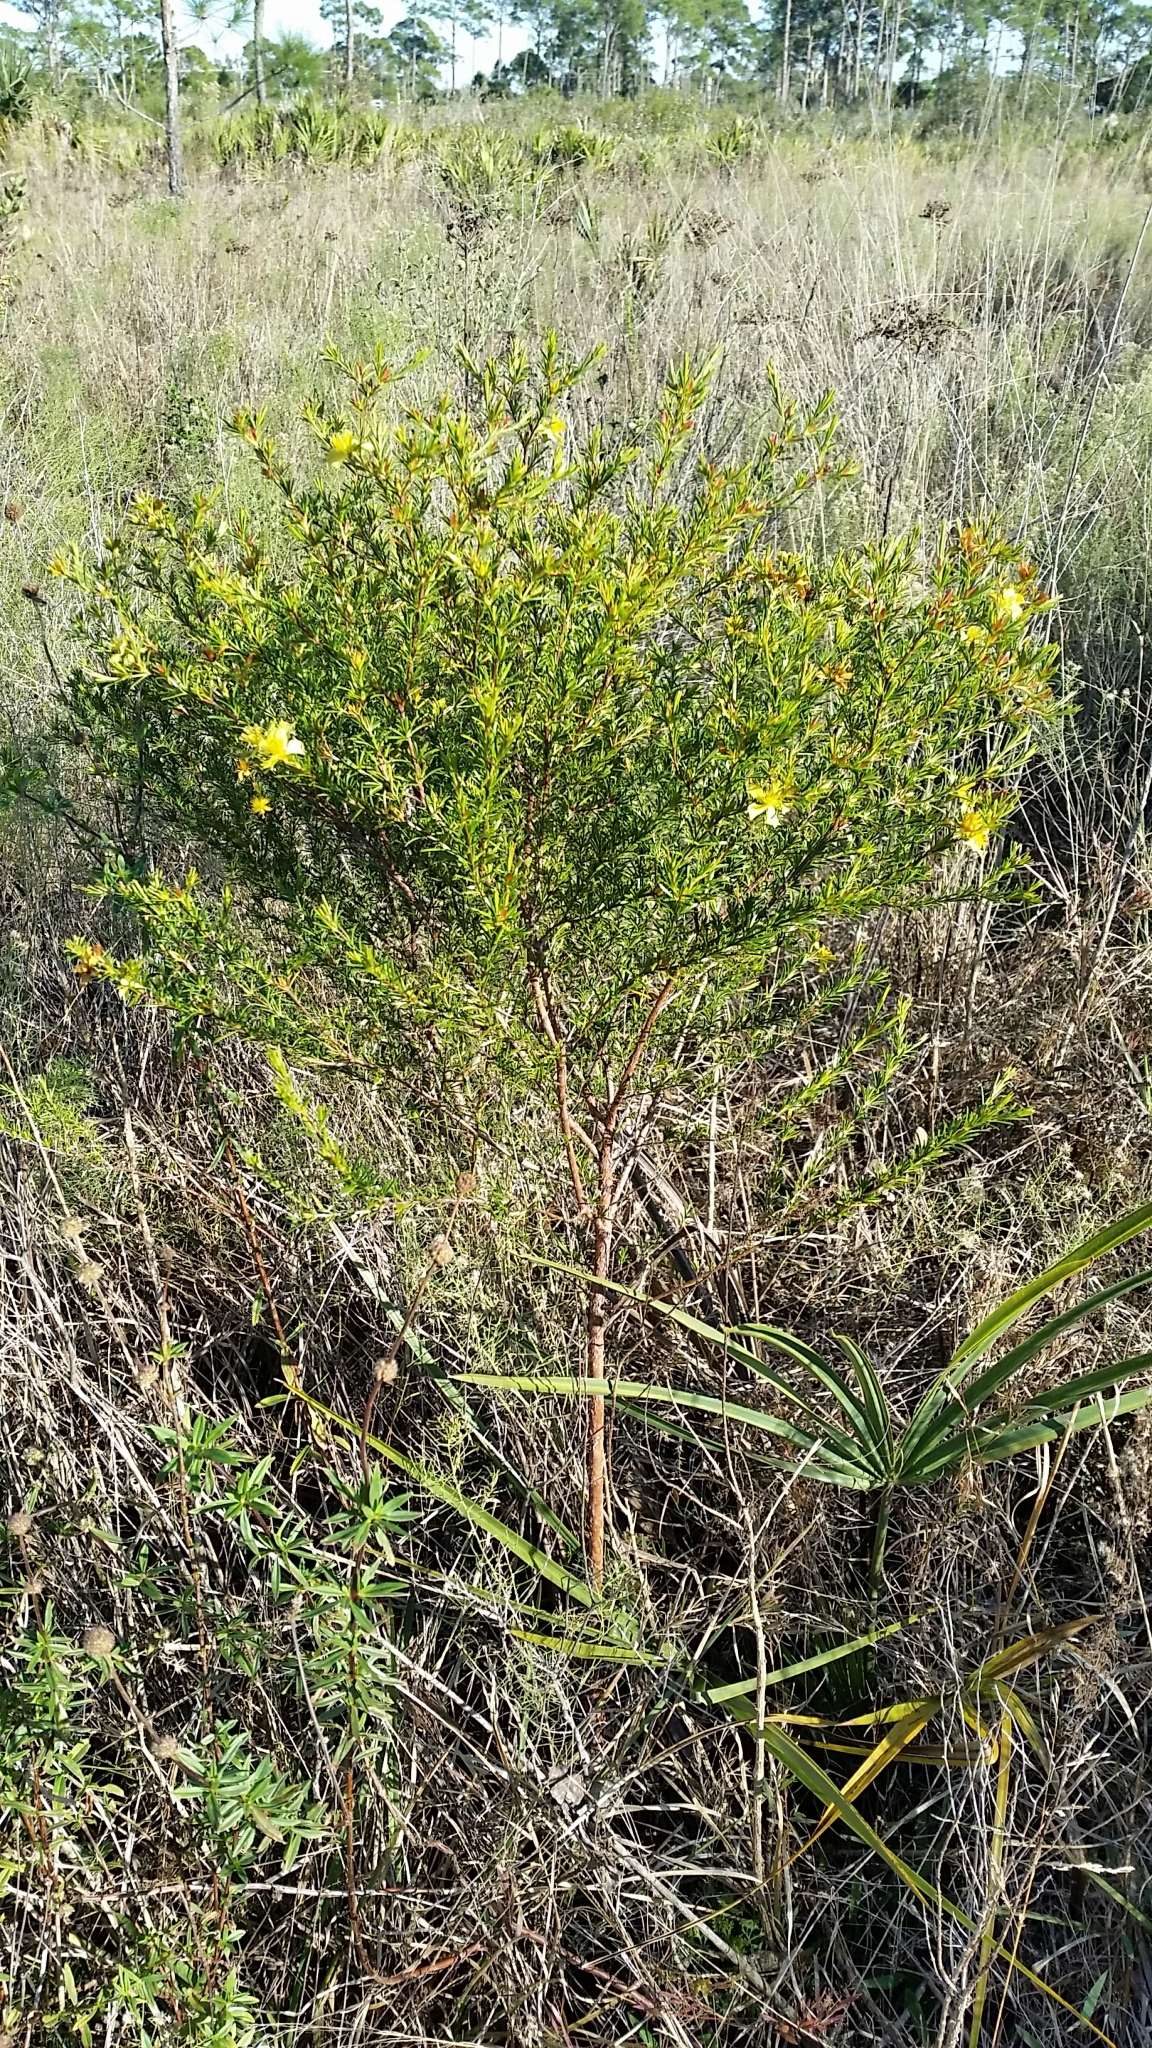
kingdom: Plantae
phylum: Tracheophyta
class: Magnoliopsida
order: Malpighiales
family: Hypericaceae
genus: Hypericum
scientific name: Hypericum fasciculatum
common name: Peelbark st. john's wort
